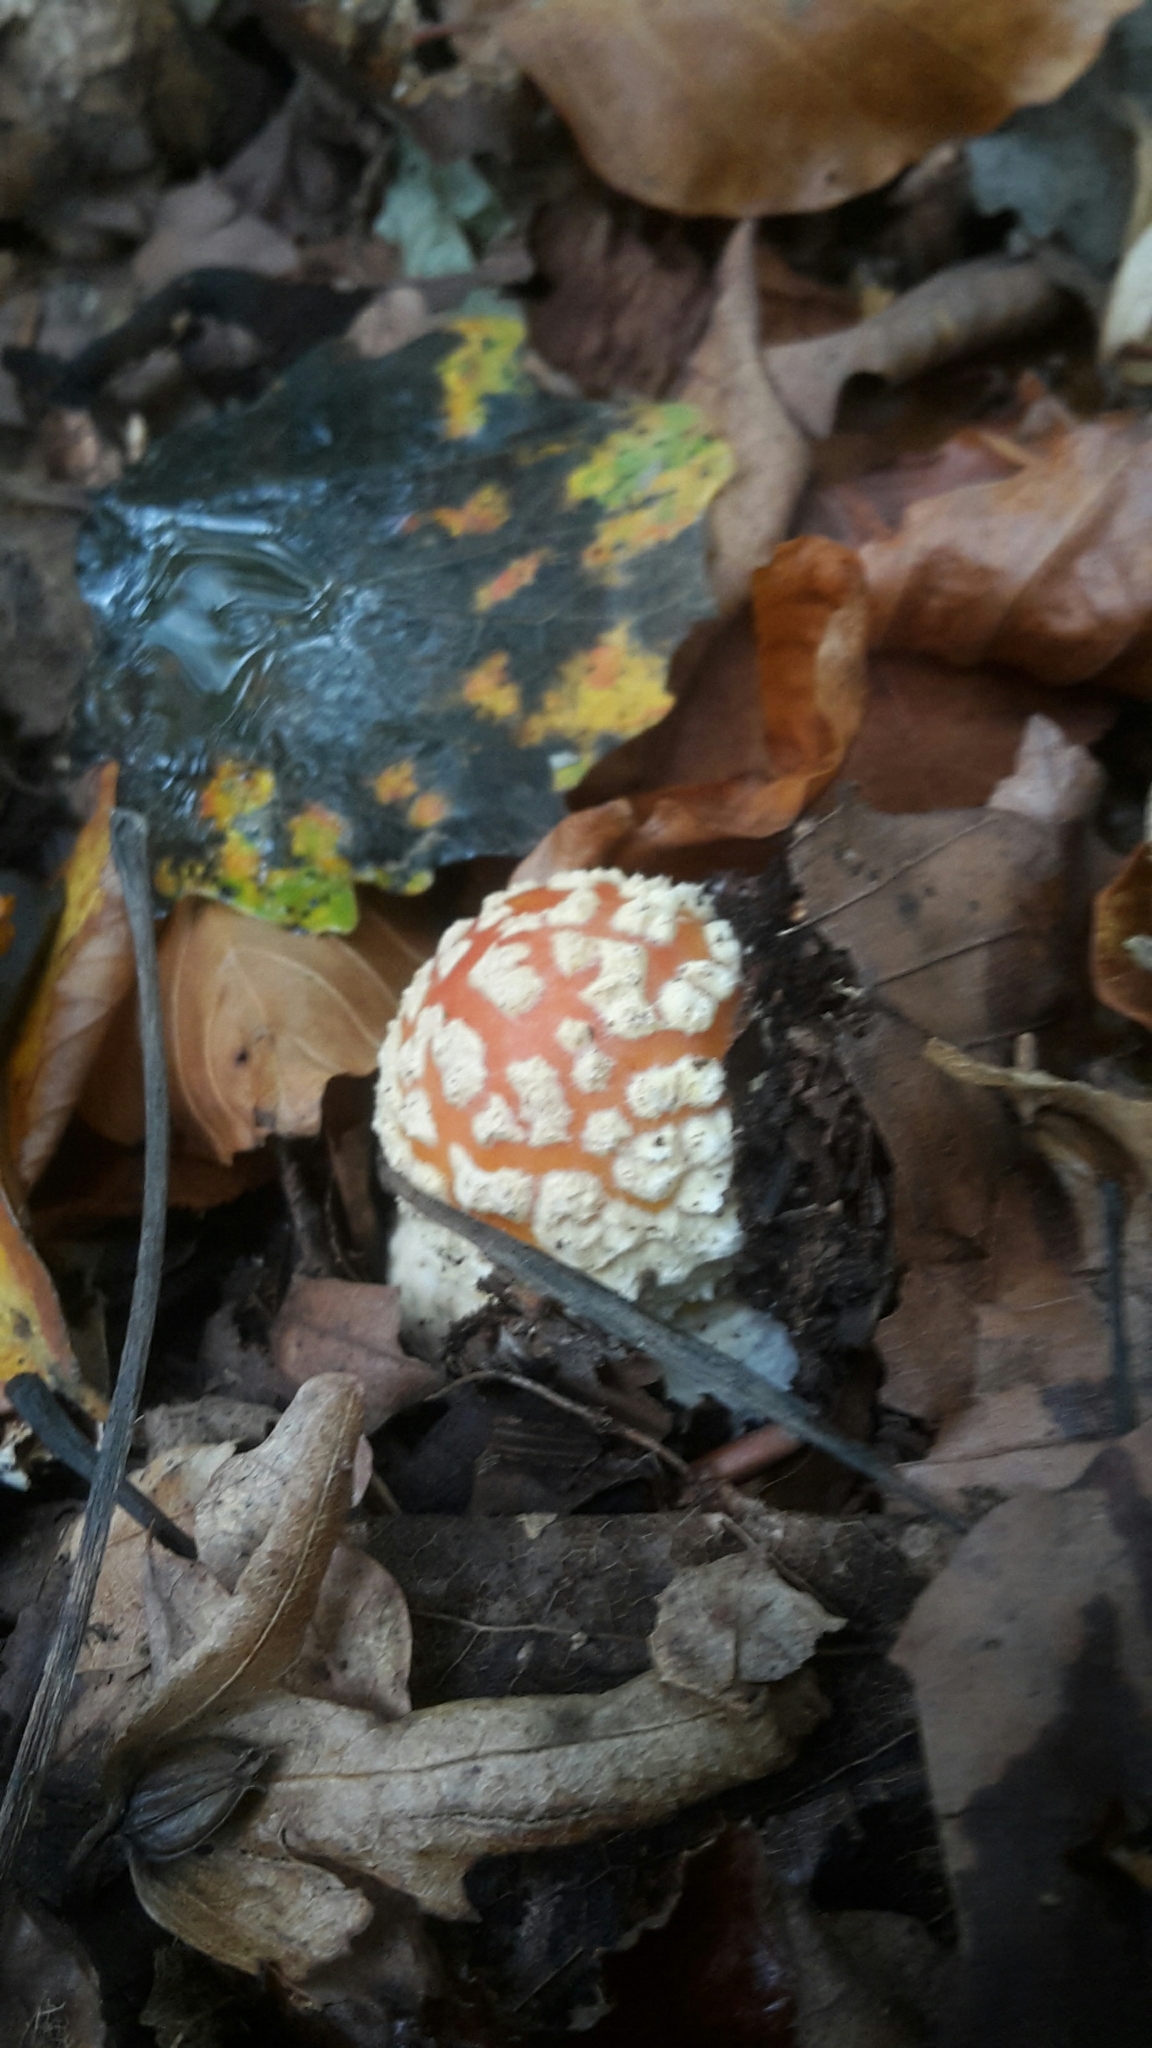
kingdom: Fungi
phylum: Basidiomycota
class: Agaricomycetes
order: Agaricales
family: Amanitaceae
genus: Amanita
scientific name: Amanita muscaria
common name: Fly agaric
